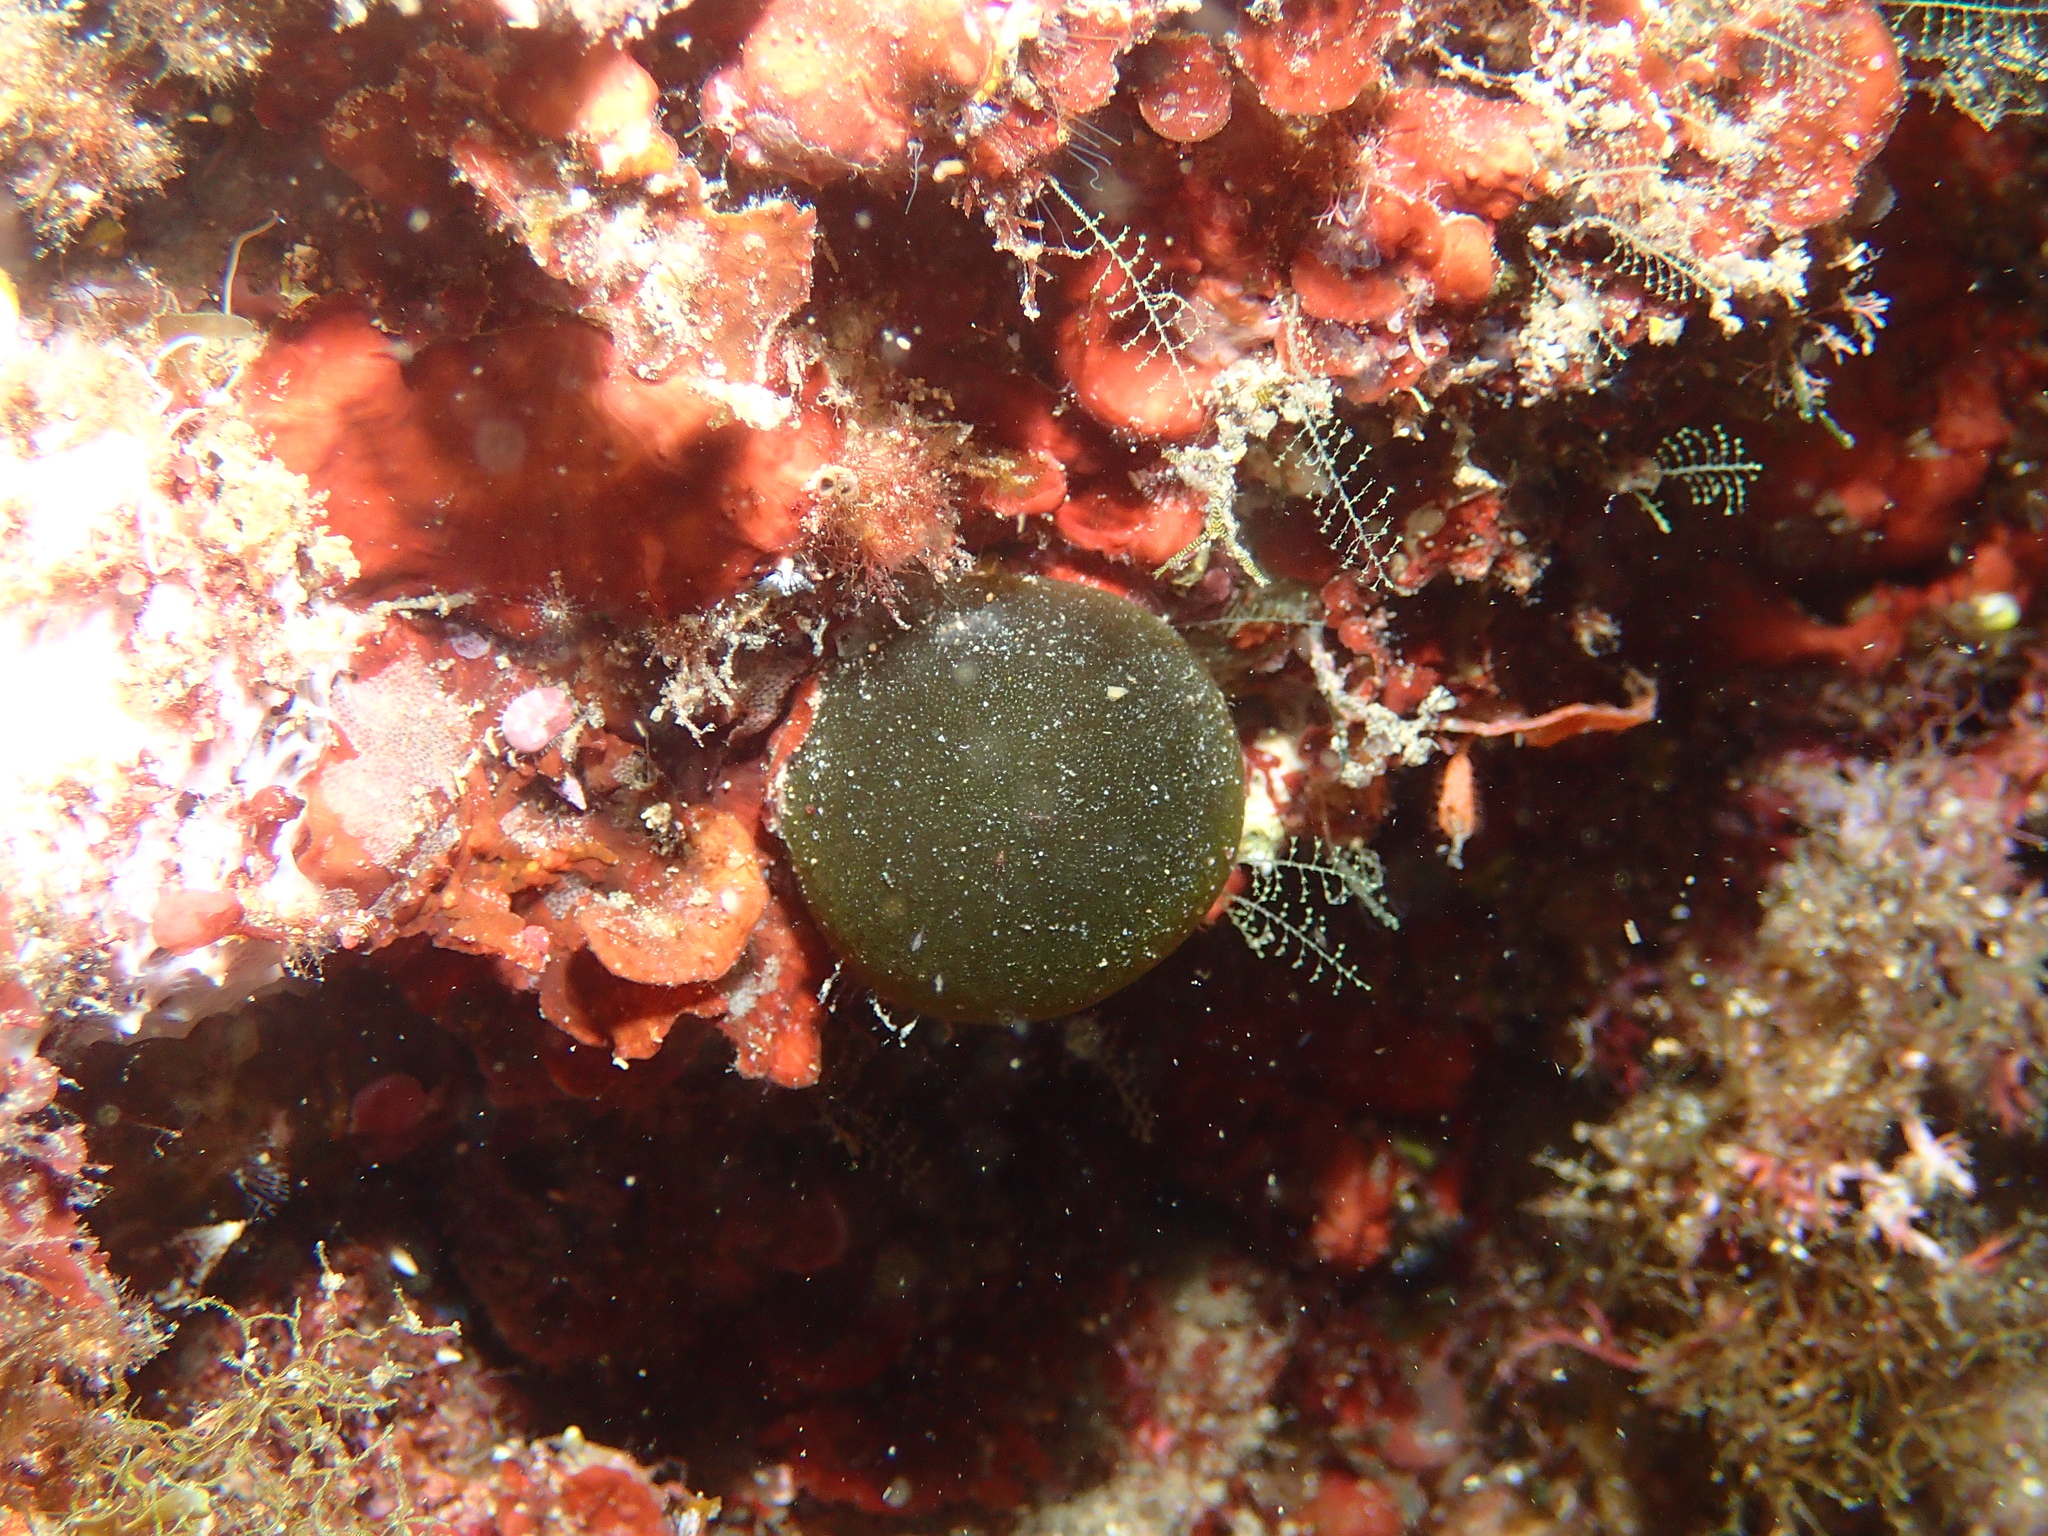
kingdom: Plantae
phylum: Chlorophyta
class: Ulvophyceae
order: Bryopsidales
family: Codiaceae
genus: Codium
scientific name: Codium bursa
